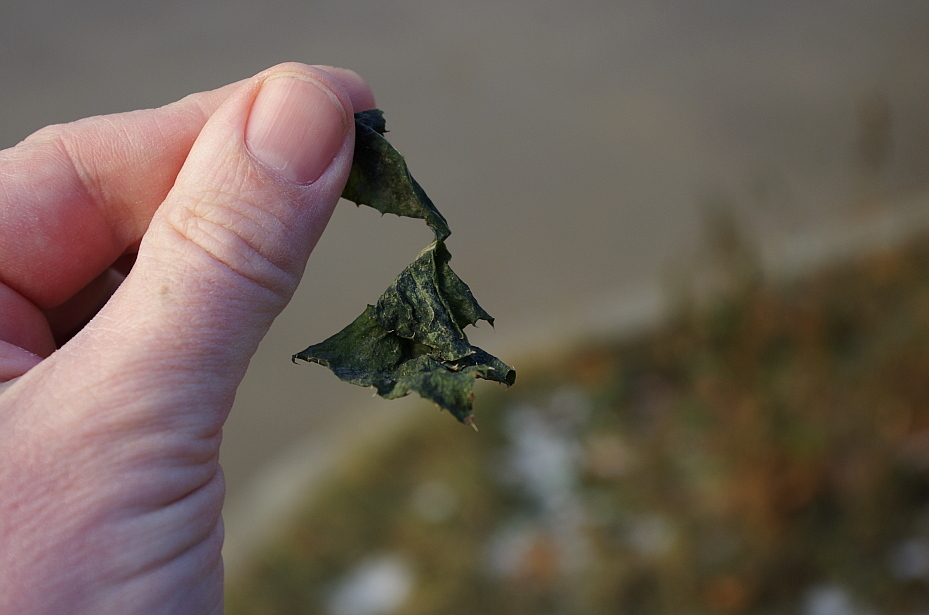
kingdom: Plantae
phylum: Tracheophyta
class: Magnoliopsida
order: Asterales
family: Asteraceae
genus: Sonchus
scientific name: Sonchus oleraceus
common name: Common sowthistle
